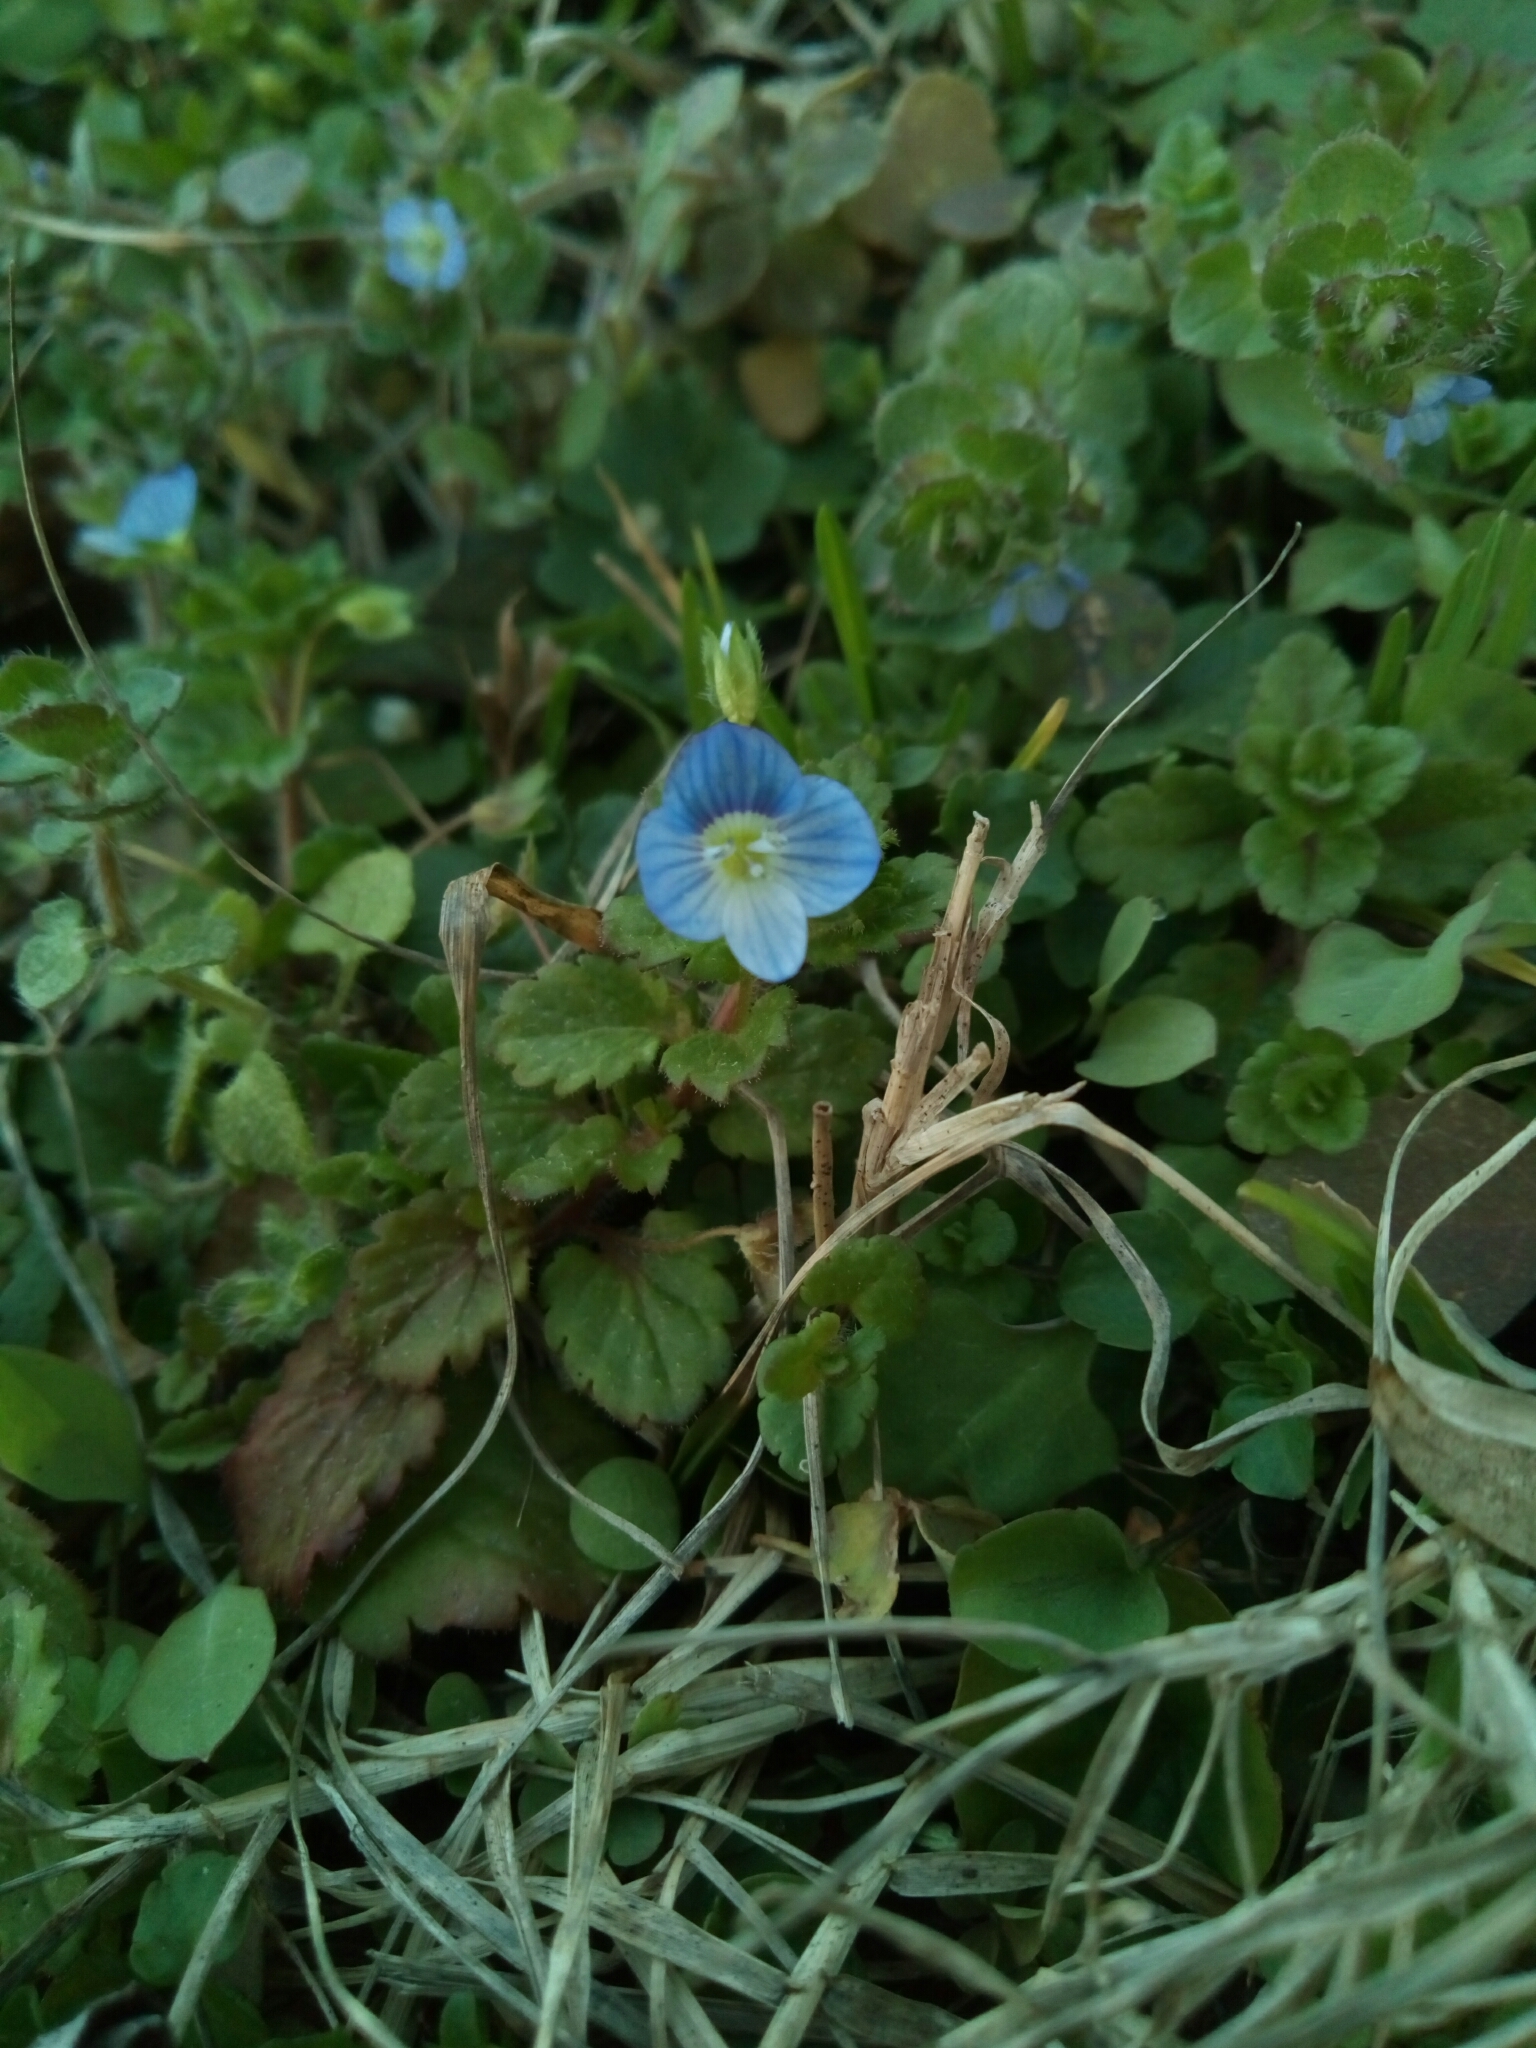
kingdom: Plantae
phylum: Tracheophyta
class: Magnoliopsida
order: Lamiales
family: Plantaginaceae
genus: Veronica
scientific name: Veronica persica
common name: Common field-speedwell
